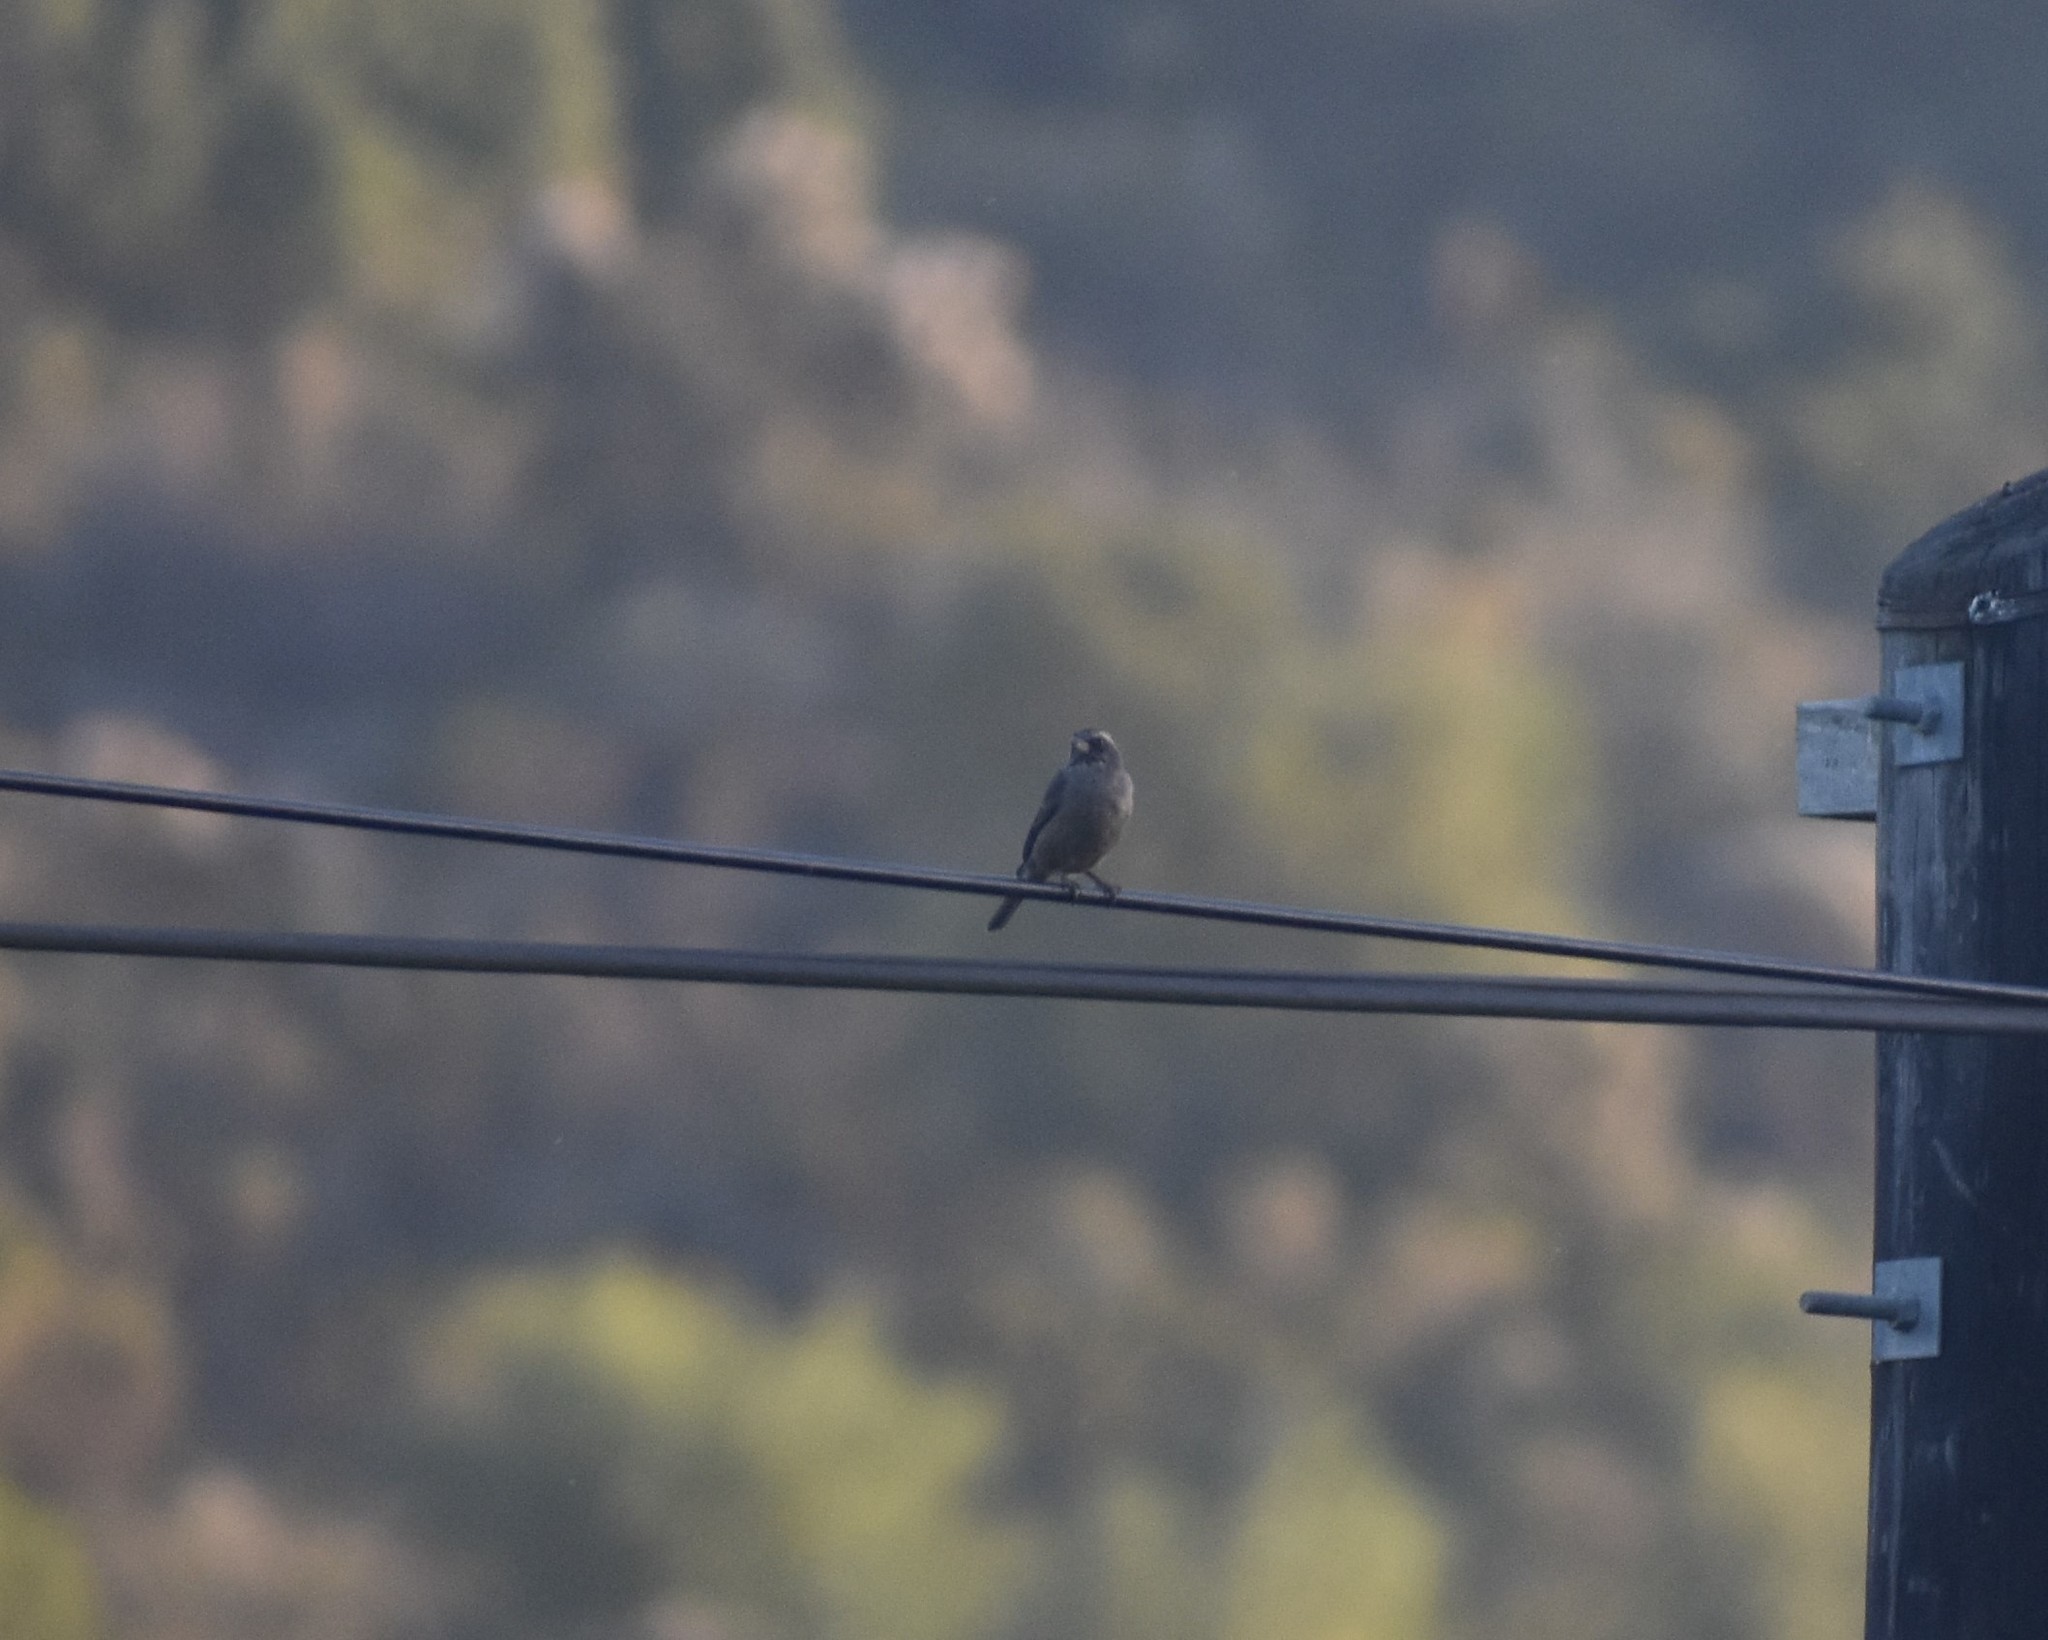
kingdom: Animalia
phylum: Chordata
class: Aves
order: Passeriformes
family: Fringillidae
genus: Crithagra
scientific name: Crithagra gularis
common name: Streaky-headed seedeater
